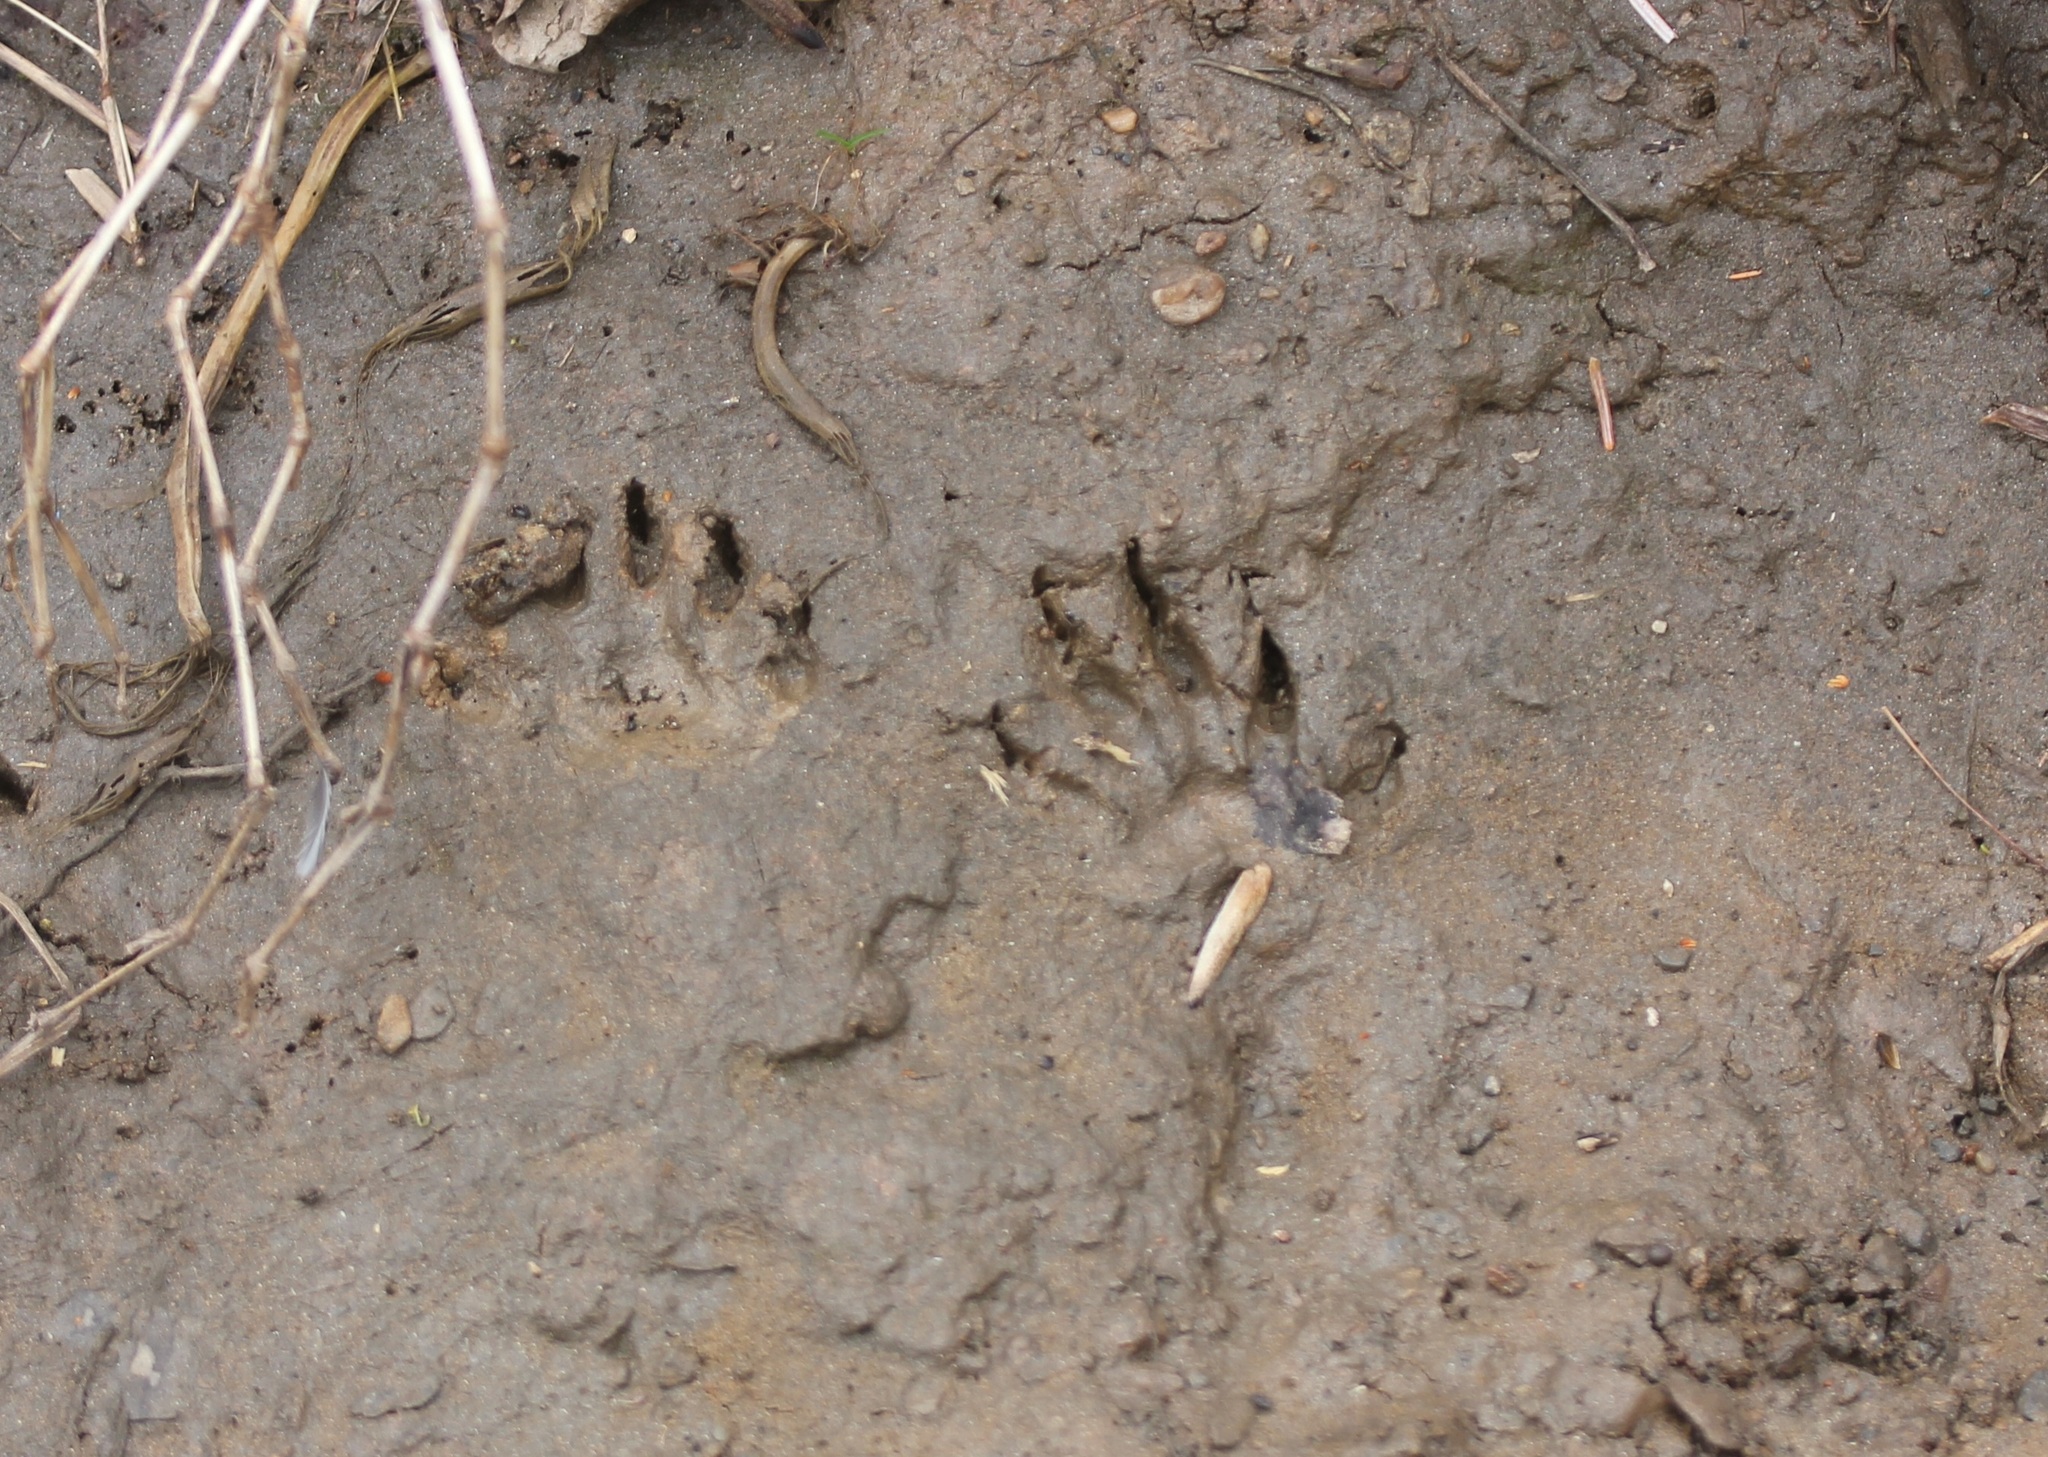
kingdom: Animalia
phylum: Chordata
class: Mammalia
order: Carnivora
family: Procyonidae
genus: Procyon
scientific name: Procyon lotor
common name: Raccoon
